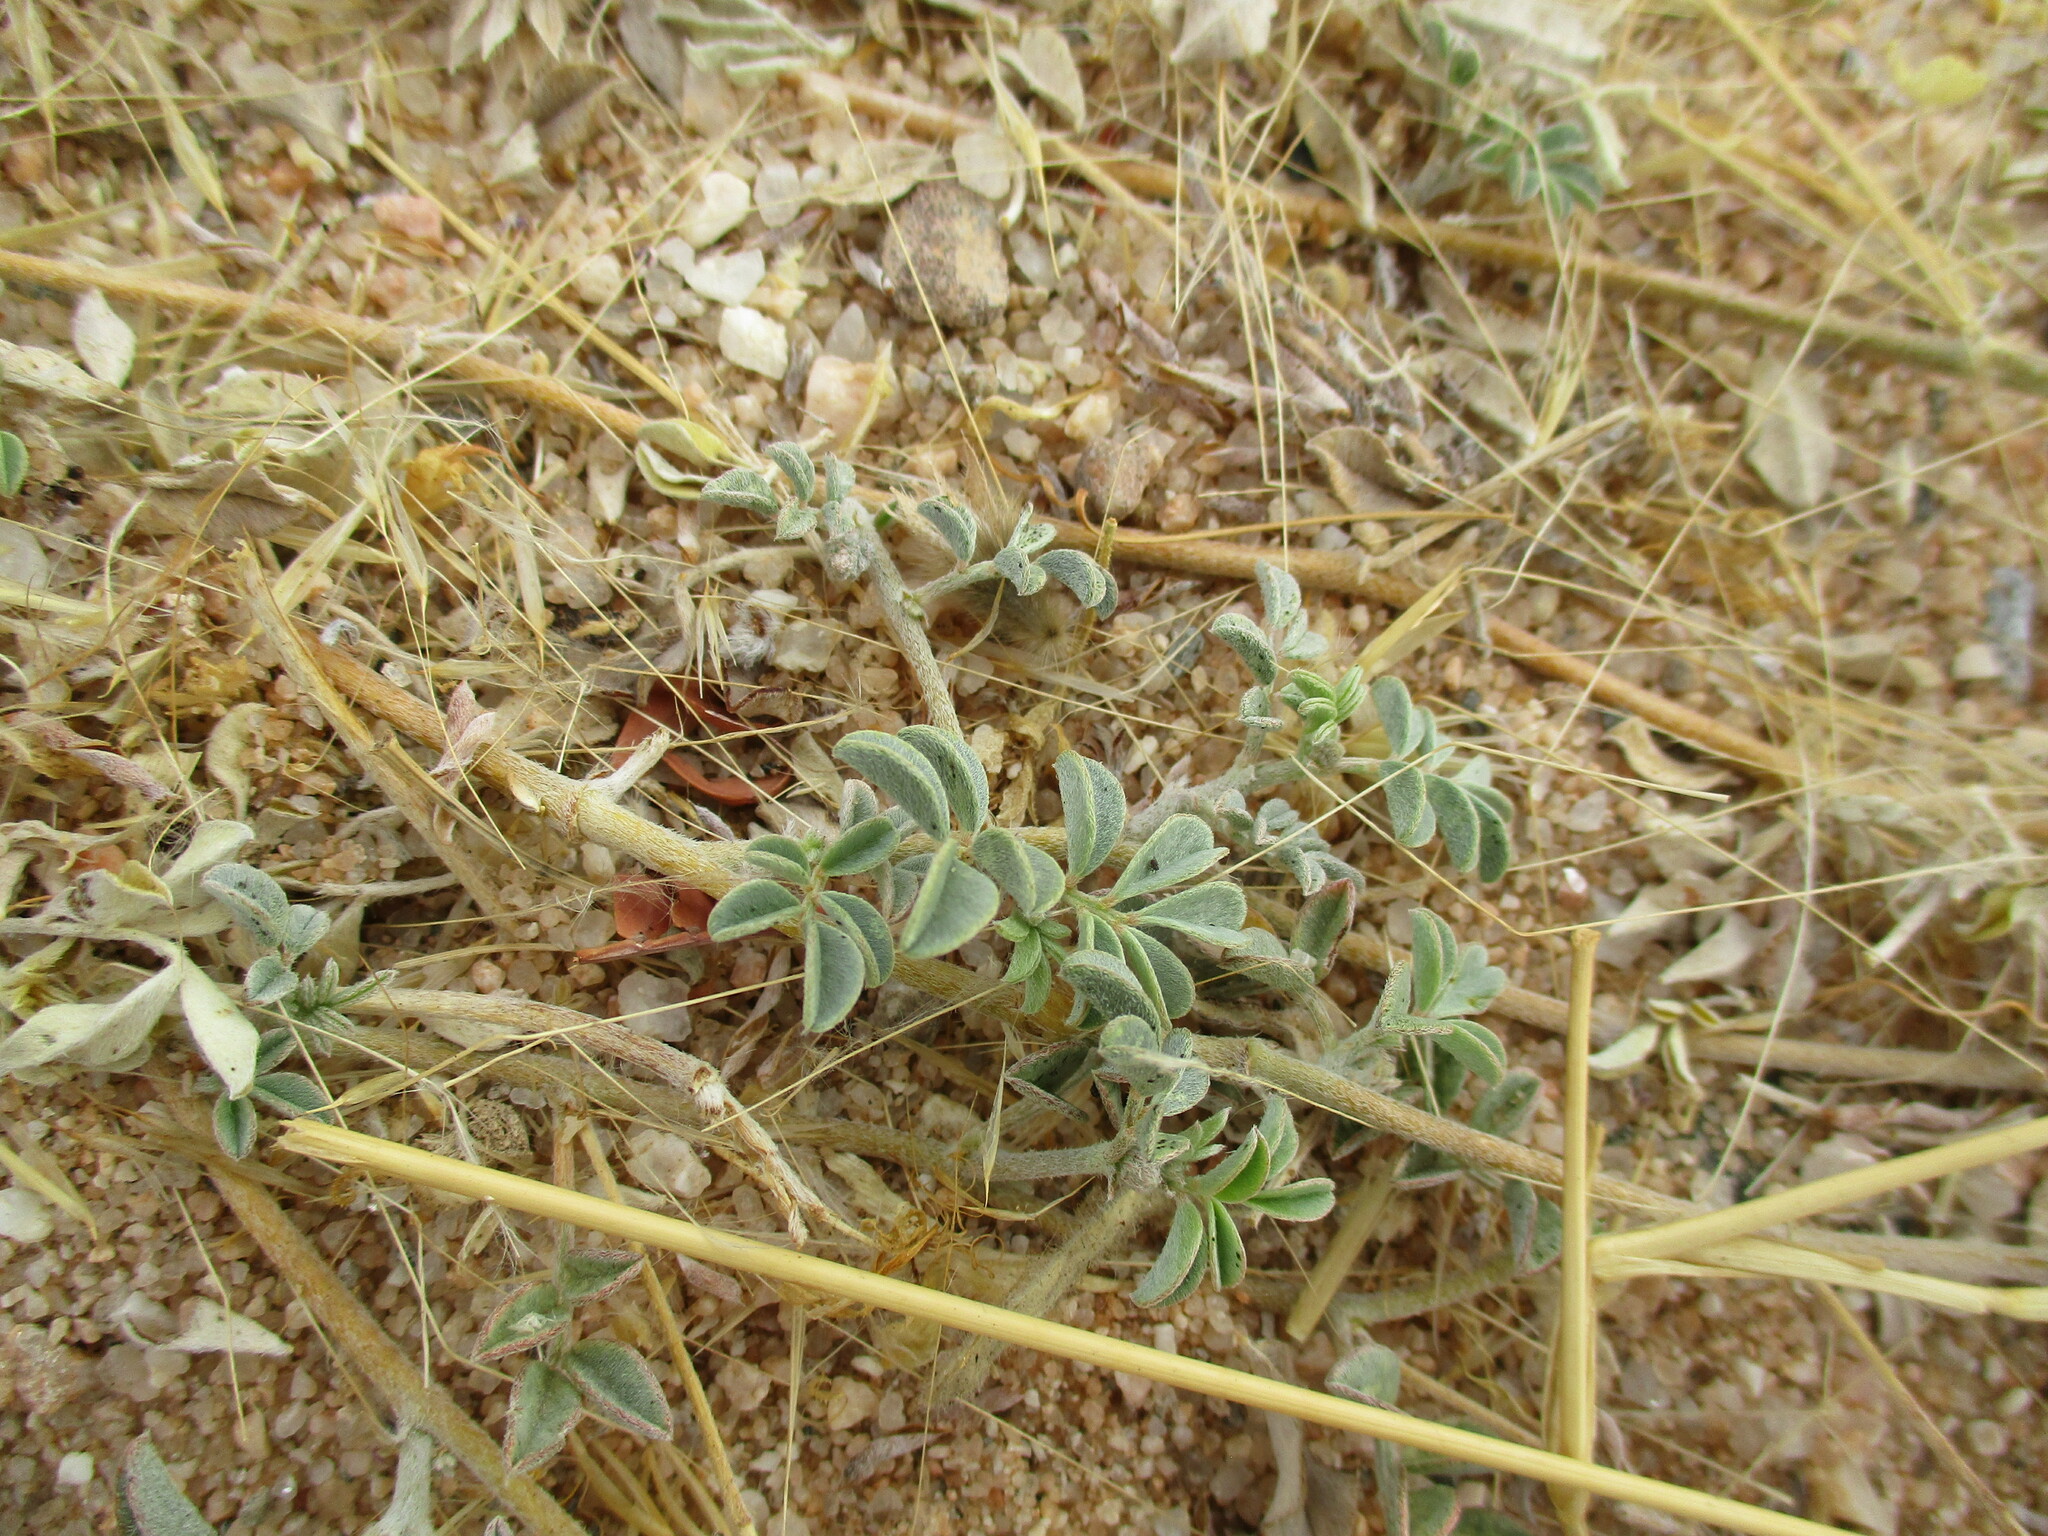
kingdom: Plantae
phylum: Tracheophyta
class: Magnoliopsida
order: Fabales
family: Fabaceae
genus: Indigofera
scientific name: Indigofera auricoma
